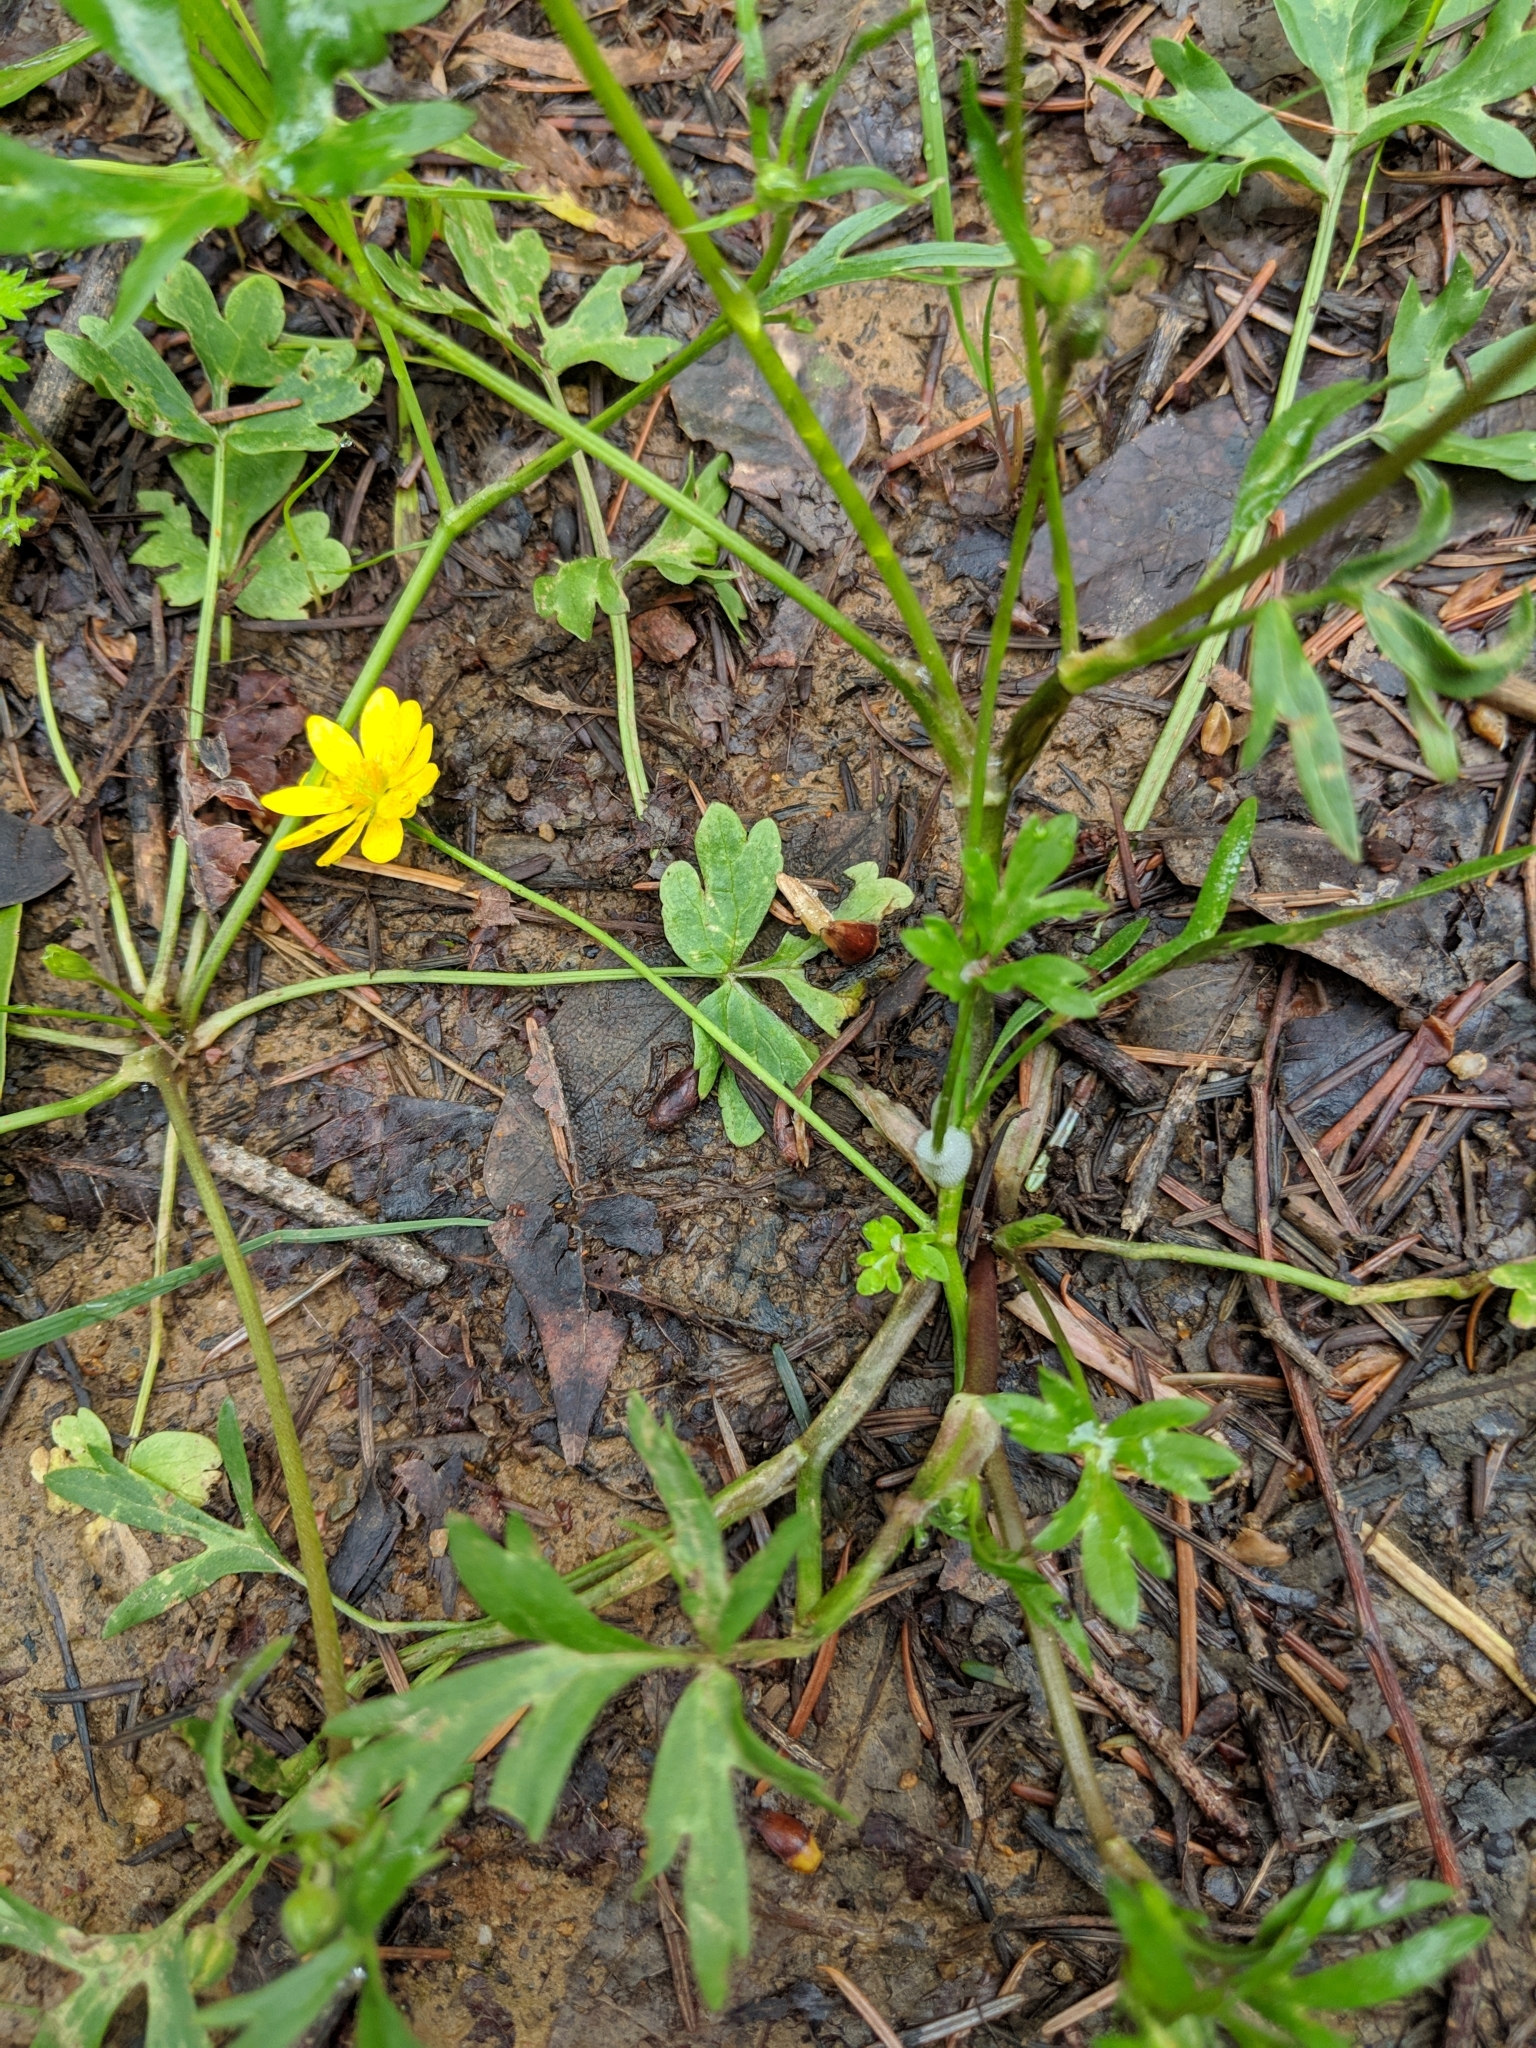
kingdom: Plantae
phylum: Tracheophyta
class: Magnoliopsida
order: Ranunculales
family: Ranunculaceae
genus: Ranunculus
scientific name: Ranunculus californicus
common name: California buttercup
